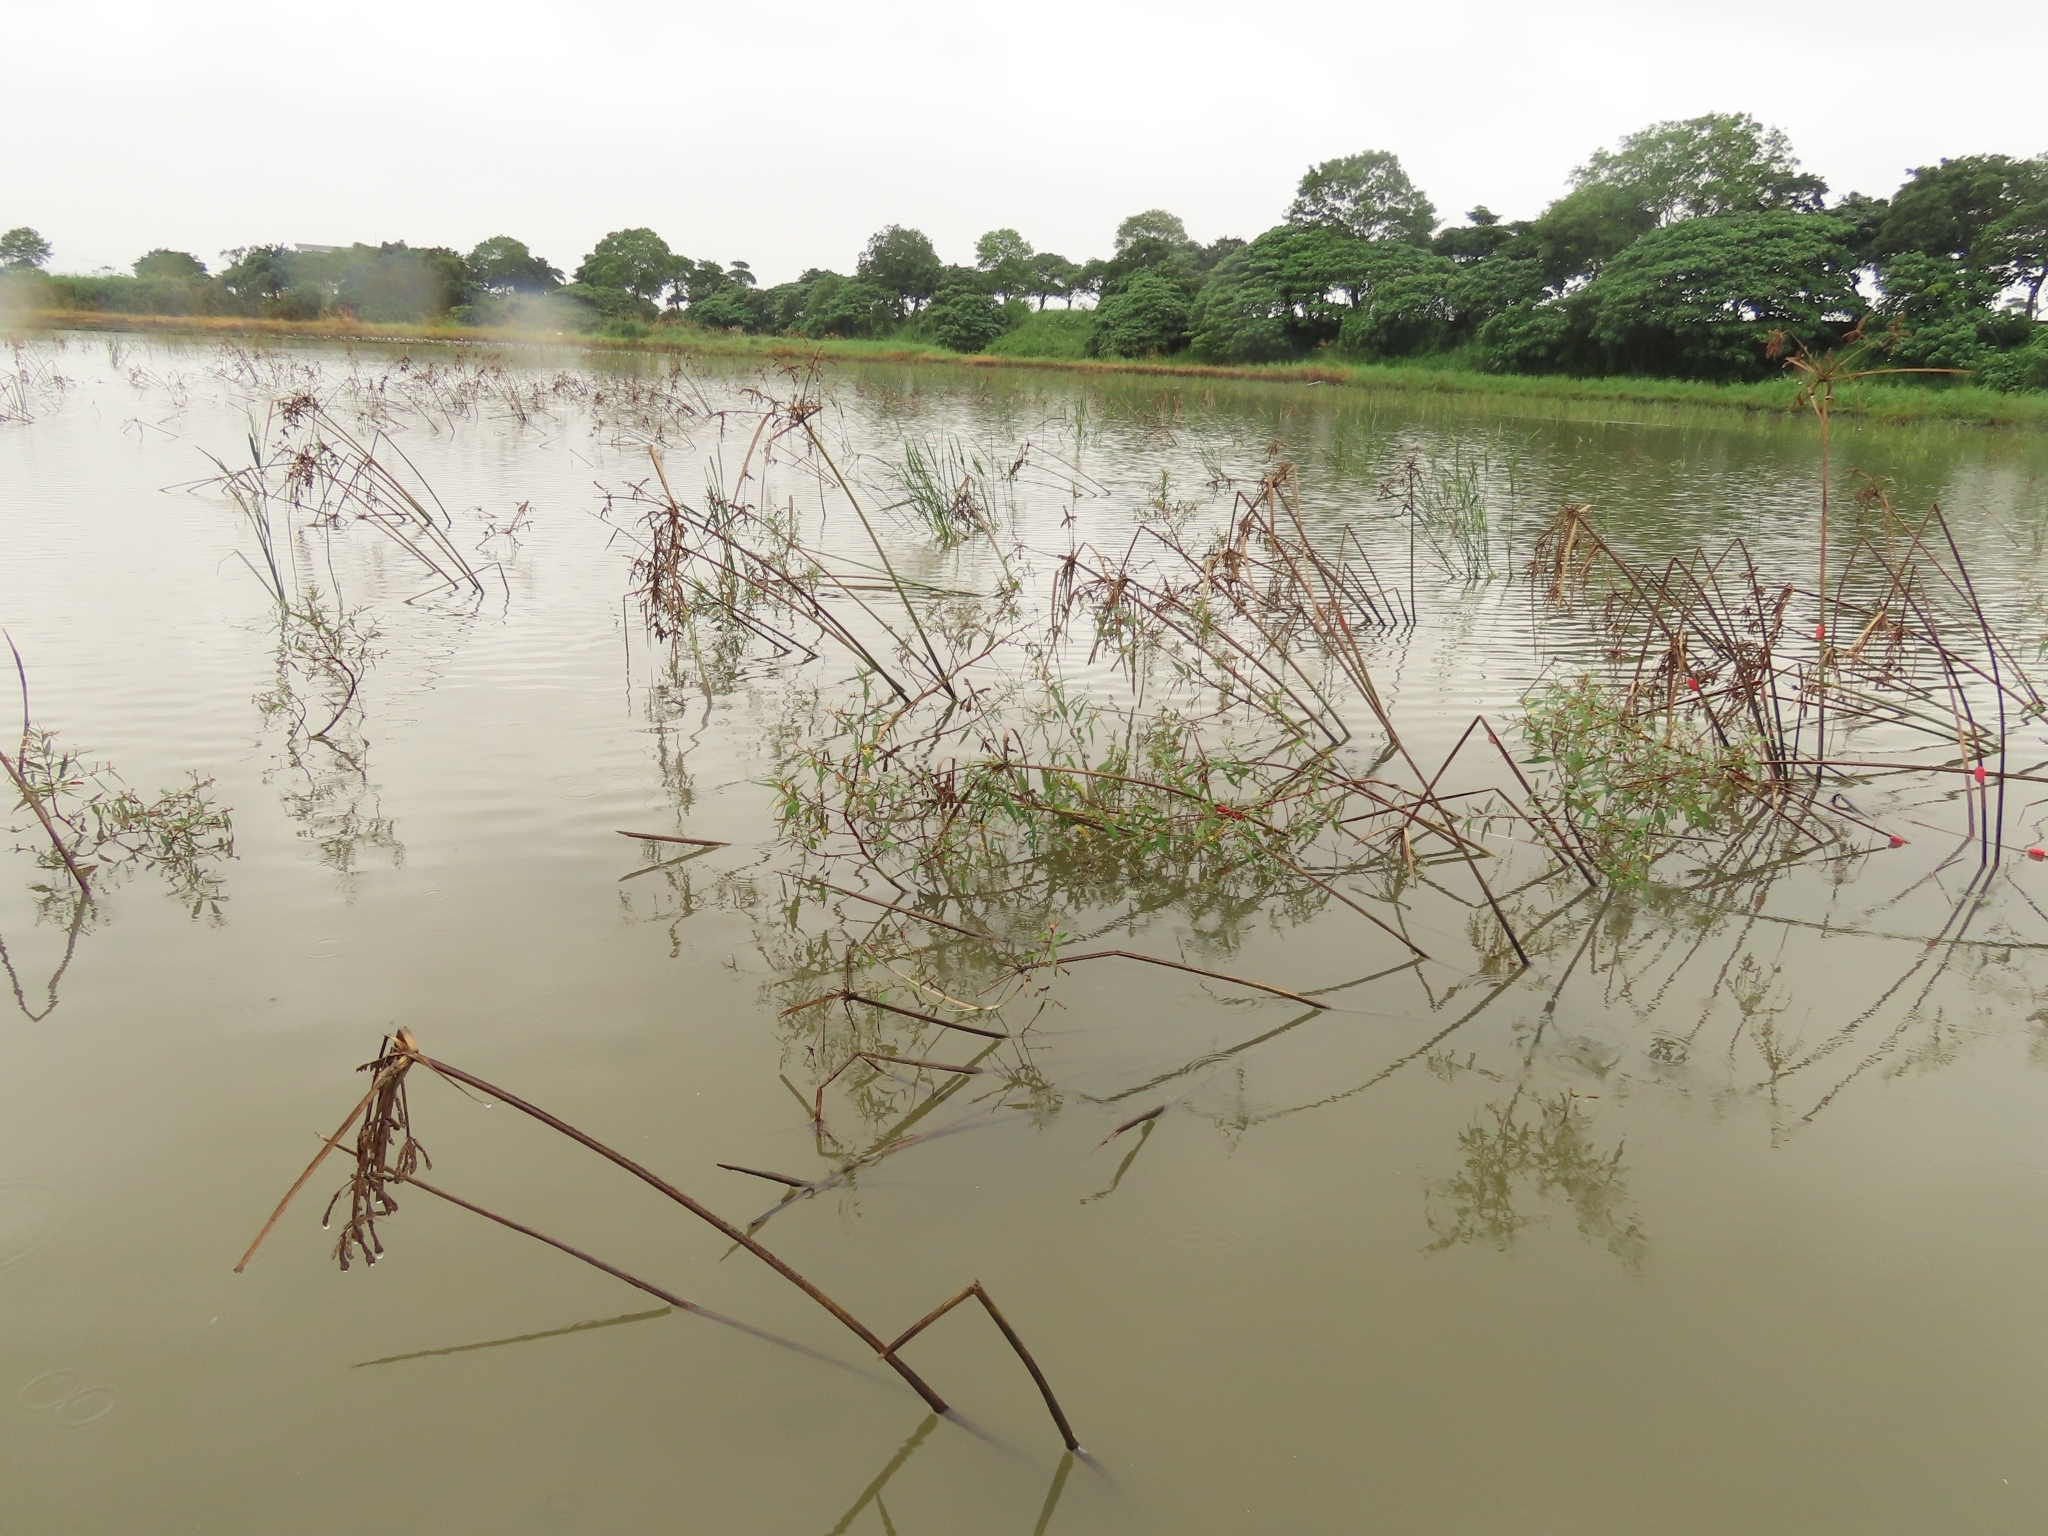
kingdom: Plantae
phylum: Tracheophyta
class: Magnoliopsida
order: Myrtales
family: Onagraceae
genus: Ludwigia
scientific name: Ludwigia hyssopifolia
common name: Linear leaf water primrose
